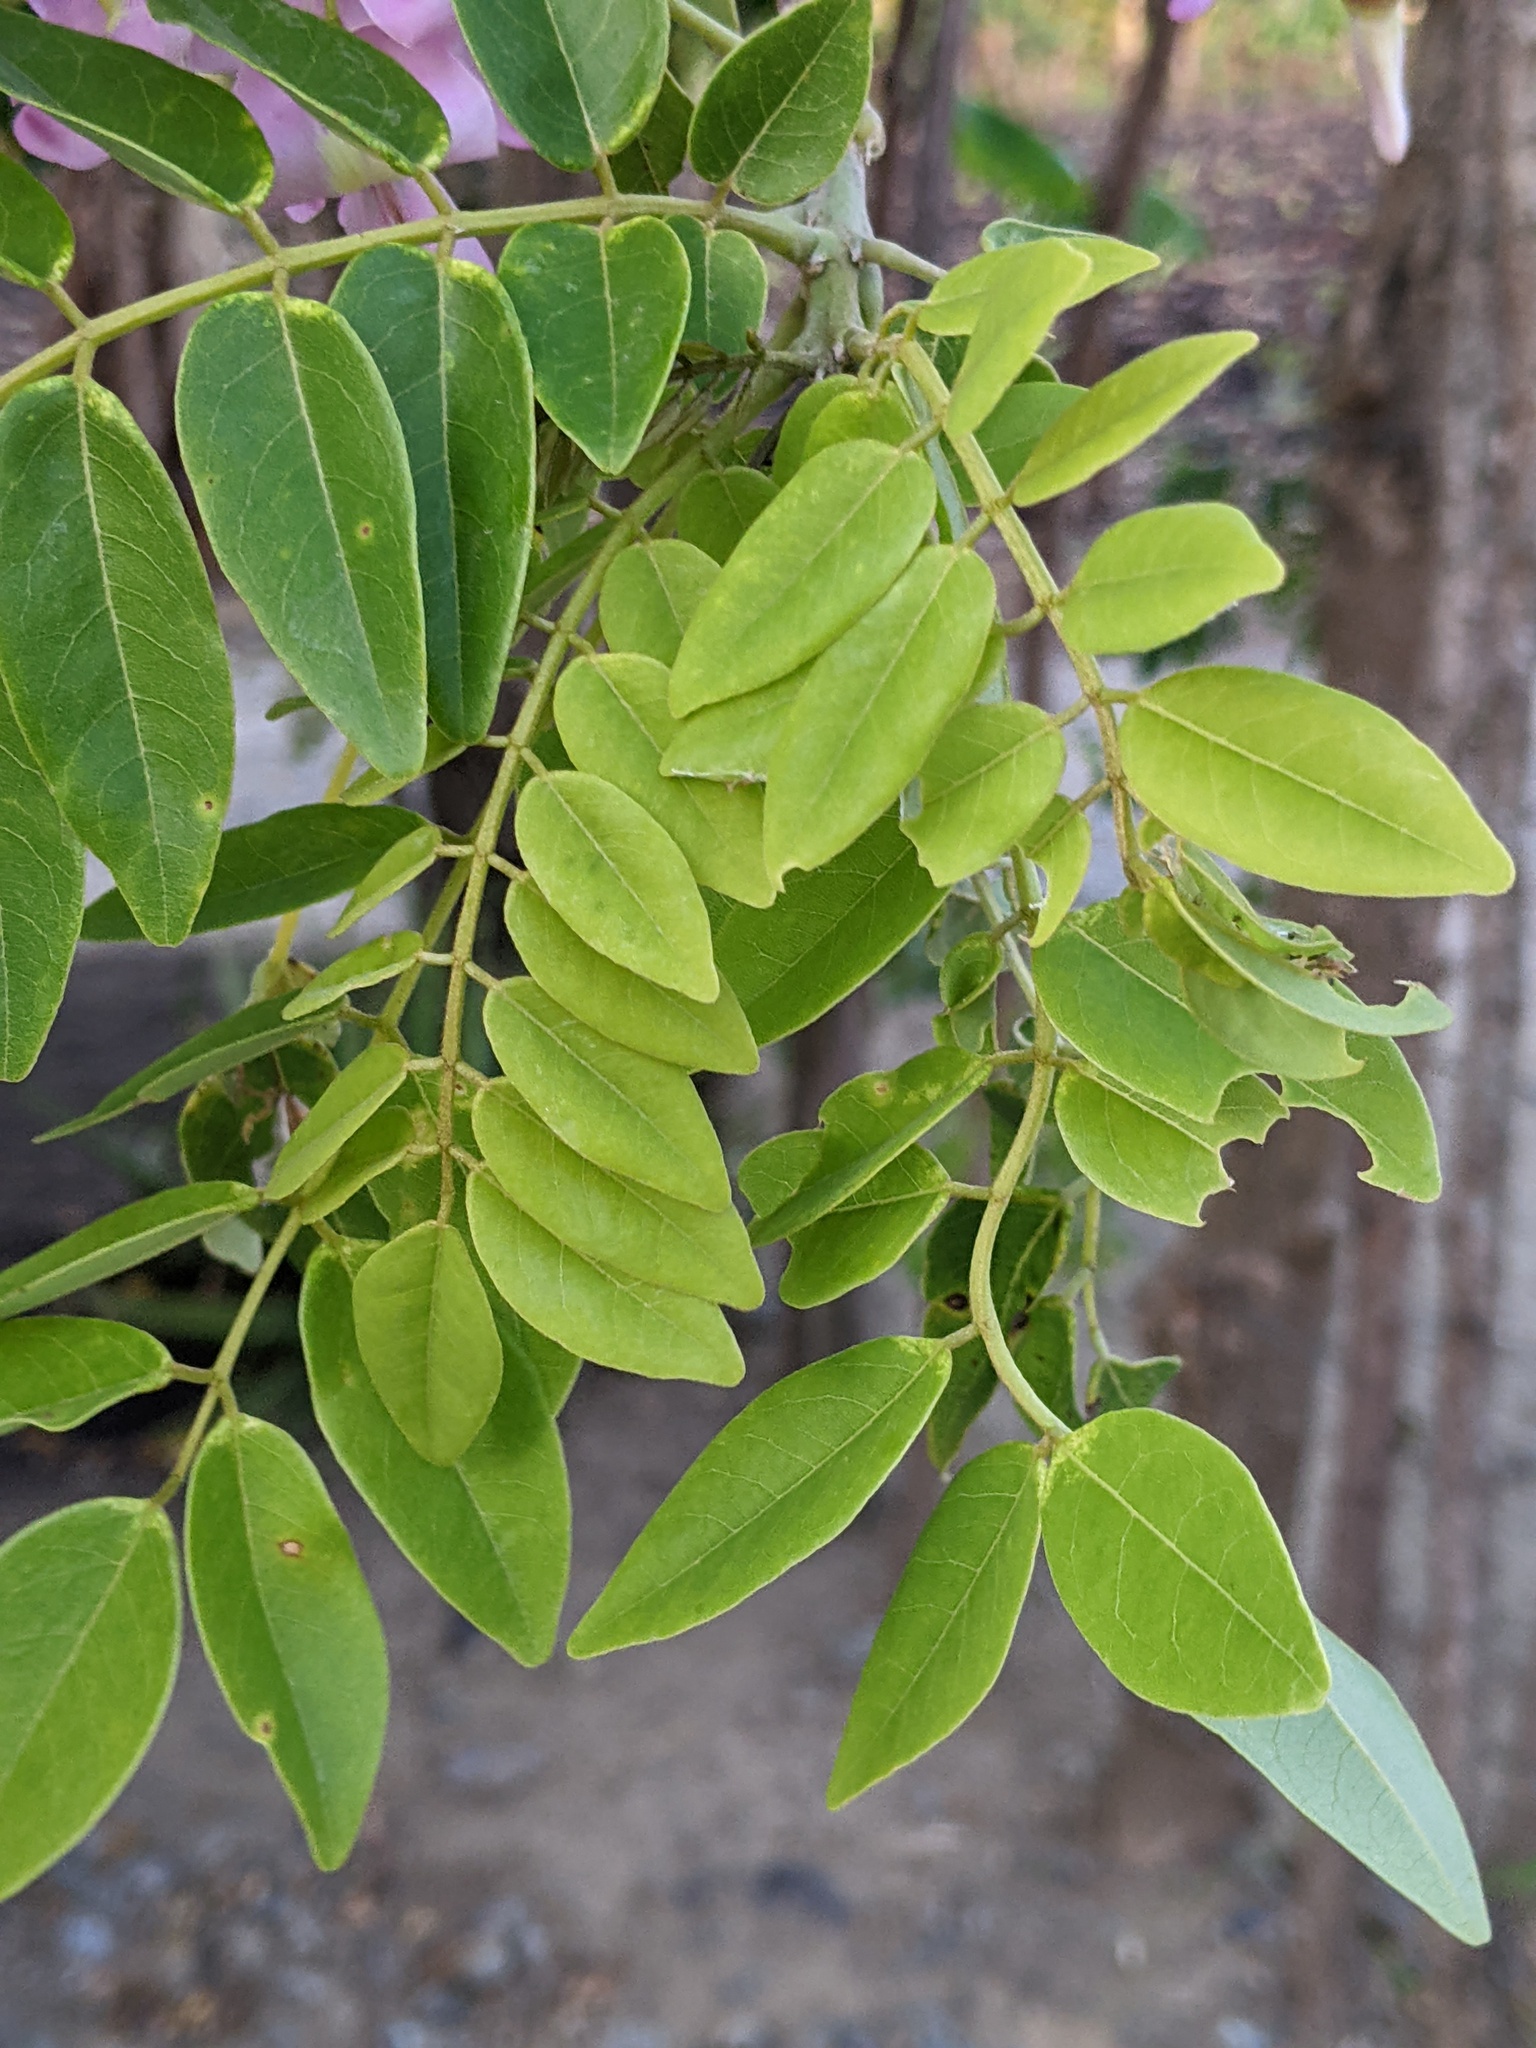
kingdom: Plantae
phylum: Tracheophyta
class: Magnoliopsida
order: Fabales
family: Fabaceae
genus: Gliricidia
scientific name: Gliricidia sepium
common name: Quickstick
